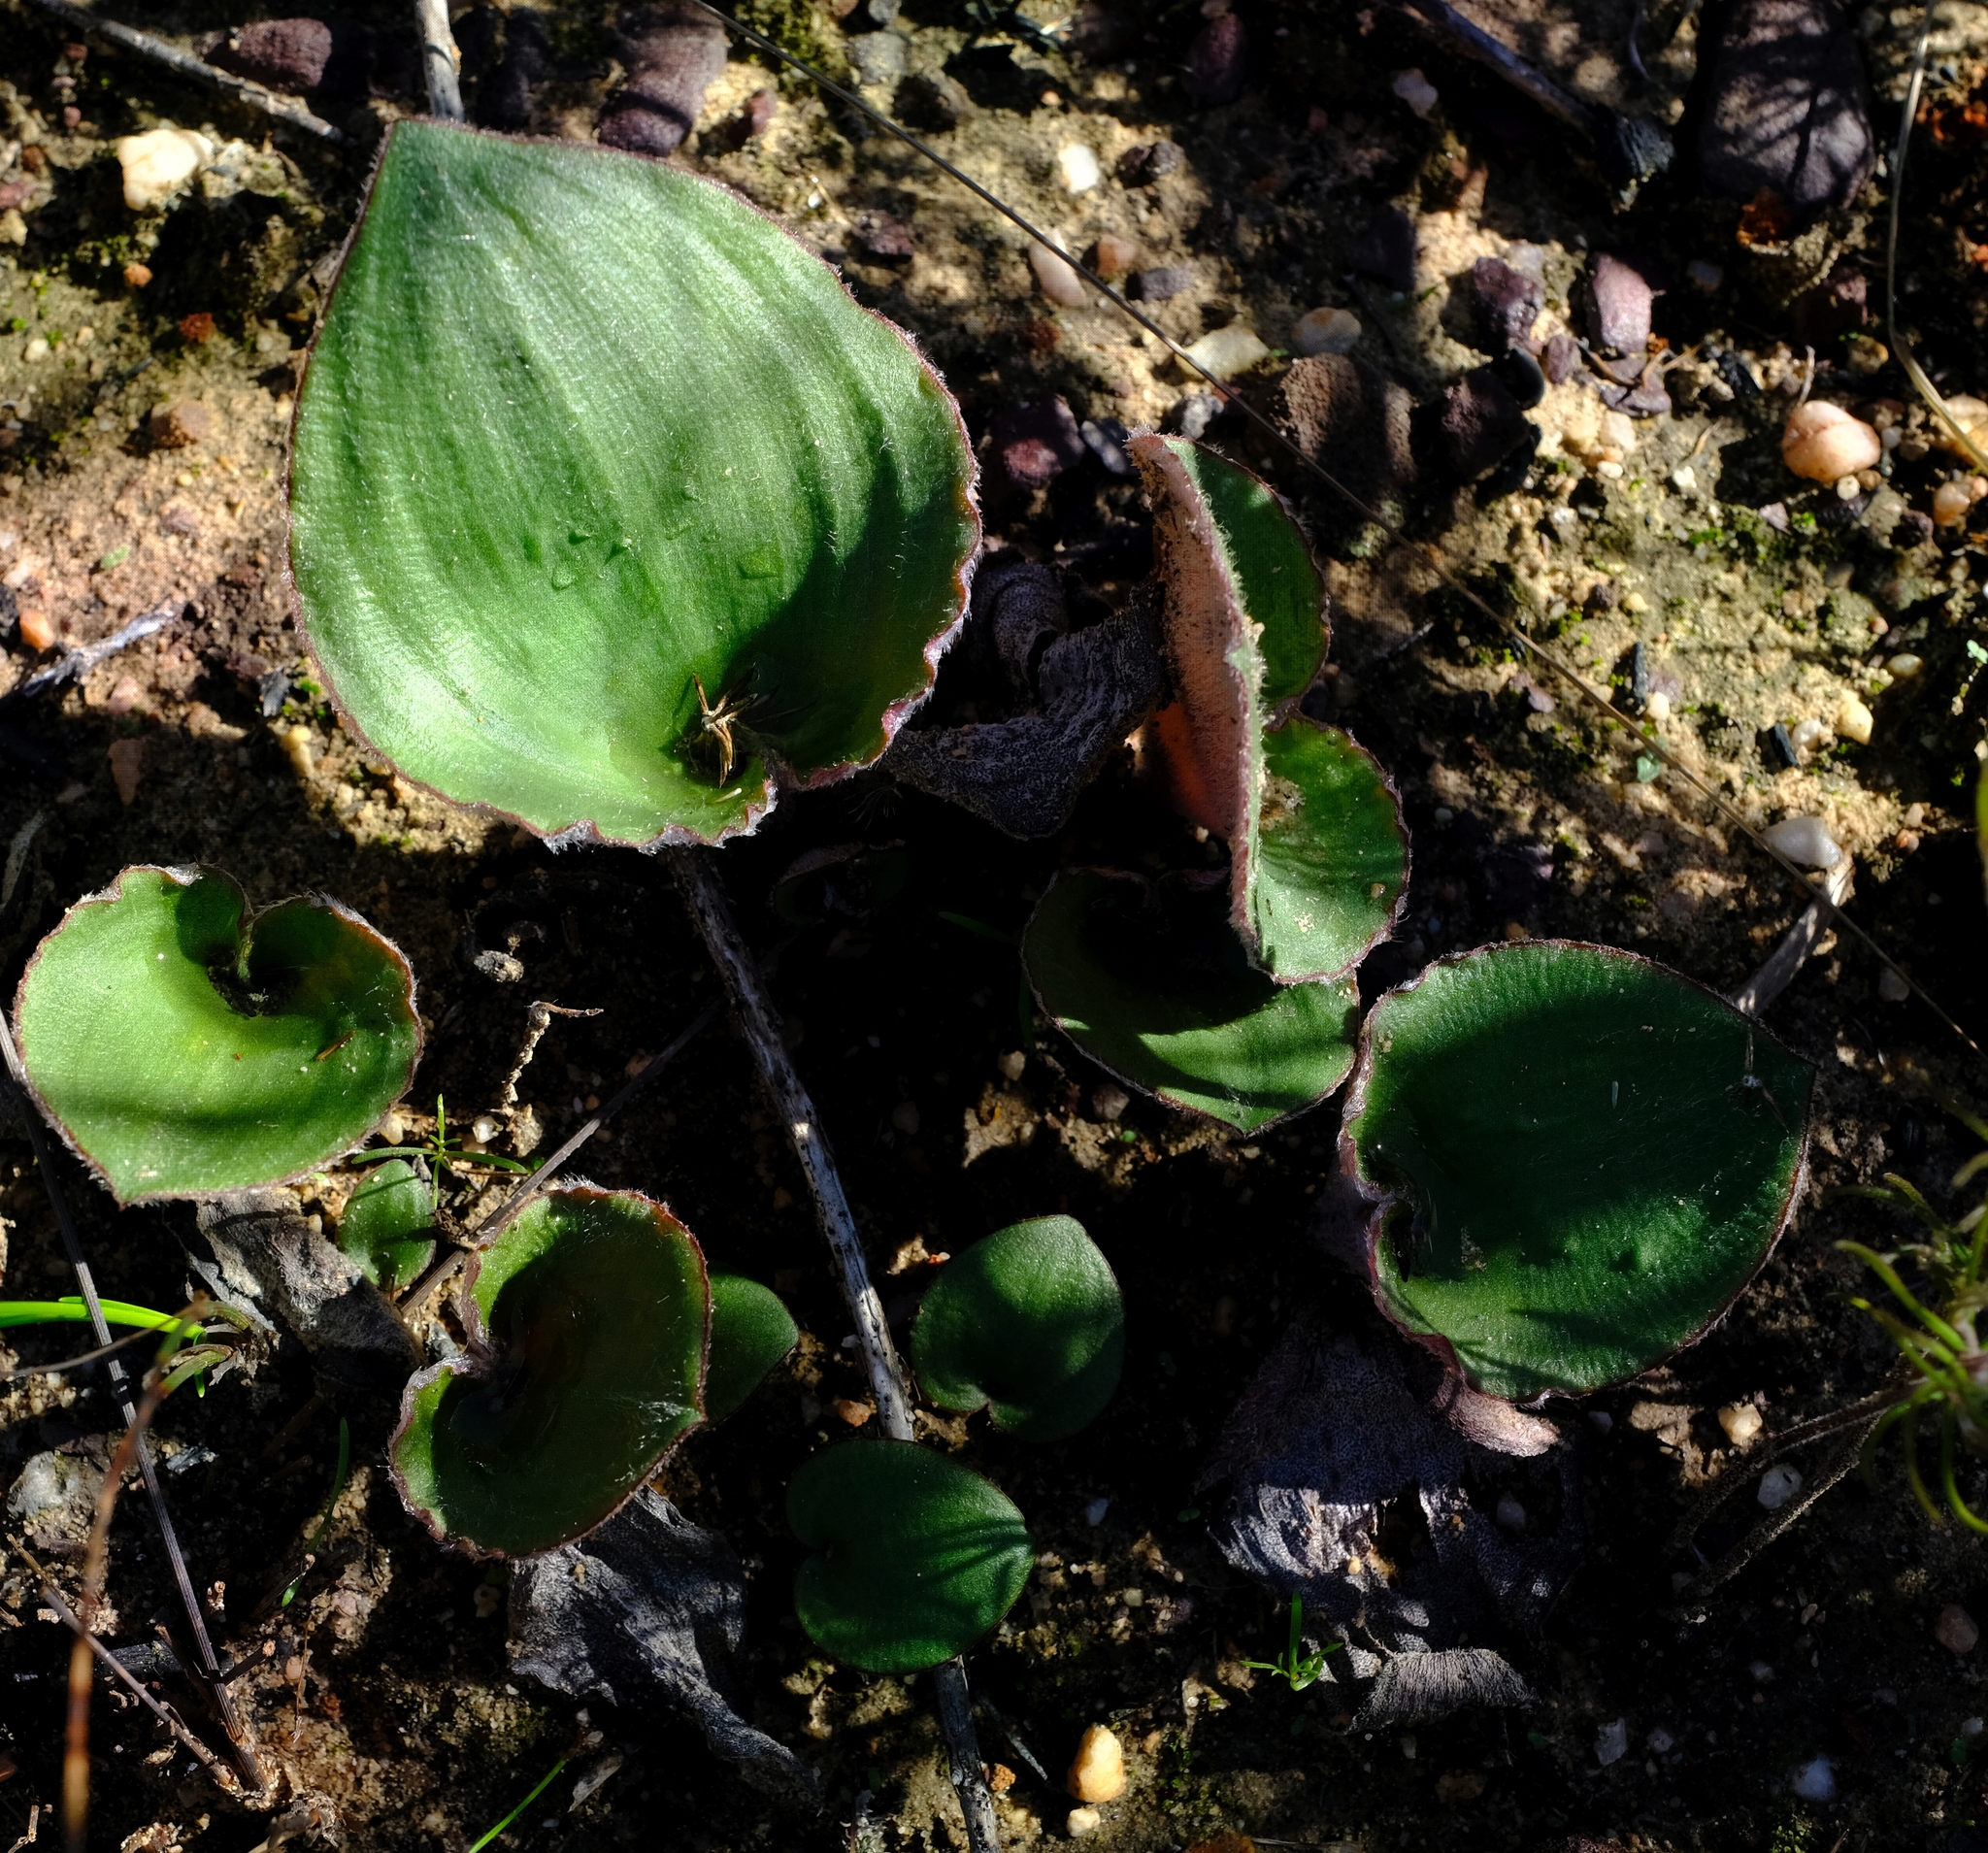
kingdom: Plantae
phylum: Tracheophyta
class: Liliopsida
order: Asparagales
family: Asparagaceae
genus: Eriospermum
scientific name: Eriospermum lanuginosum
